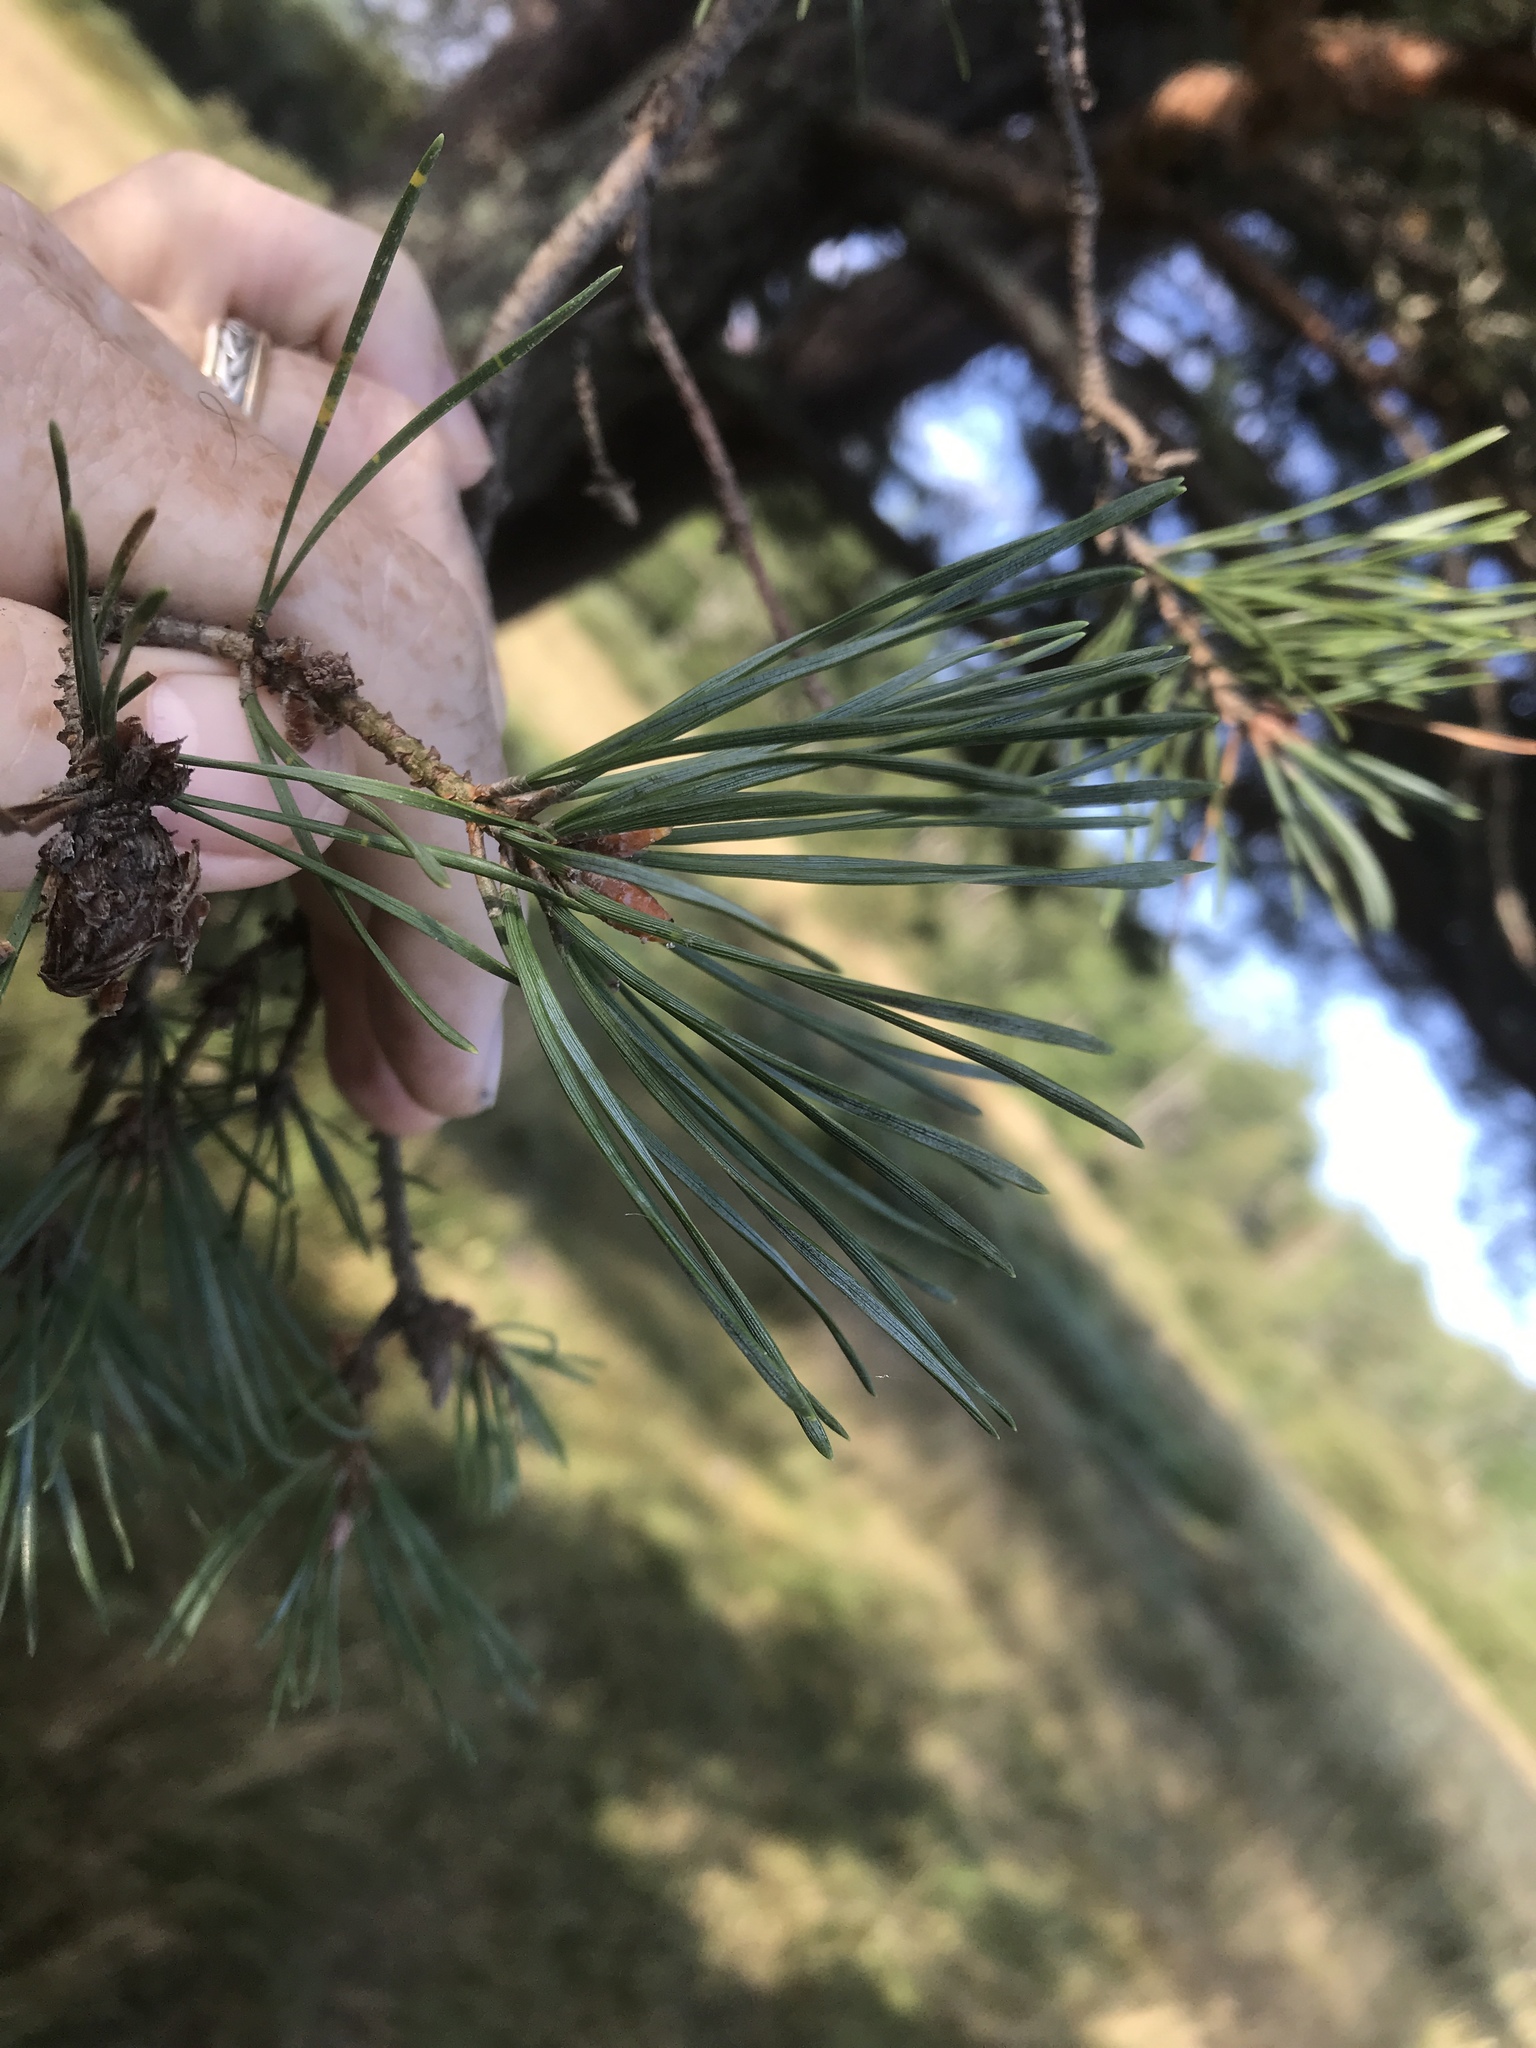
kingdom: Plantae
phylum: Tracheophyta
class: Pinopsida
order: Pinales
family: Pinaceae
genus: Pinus
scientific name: Pinus sylvestris
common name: Scots pine
